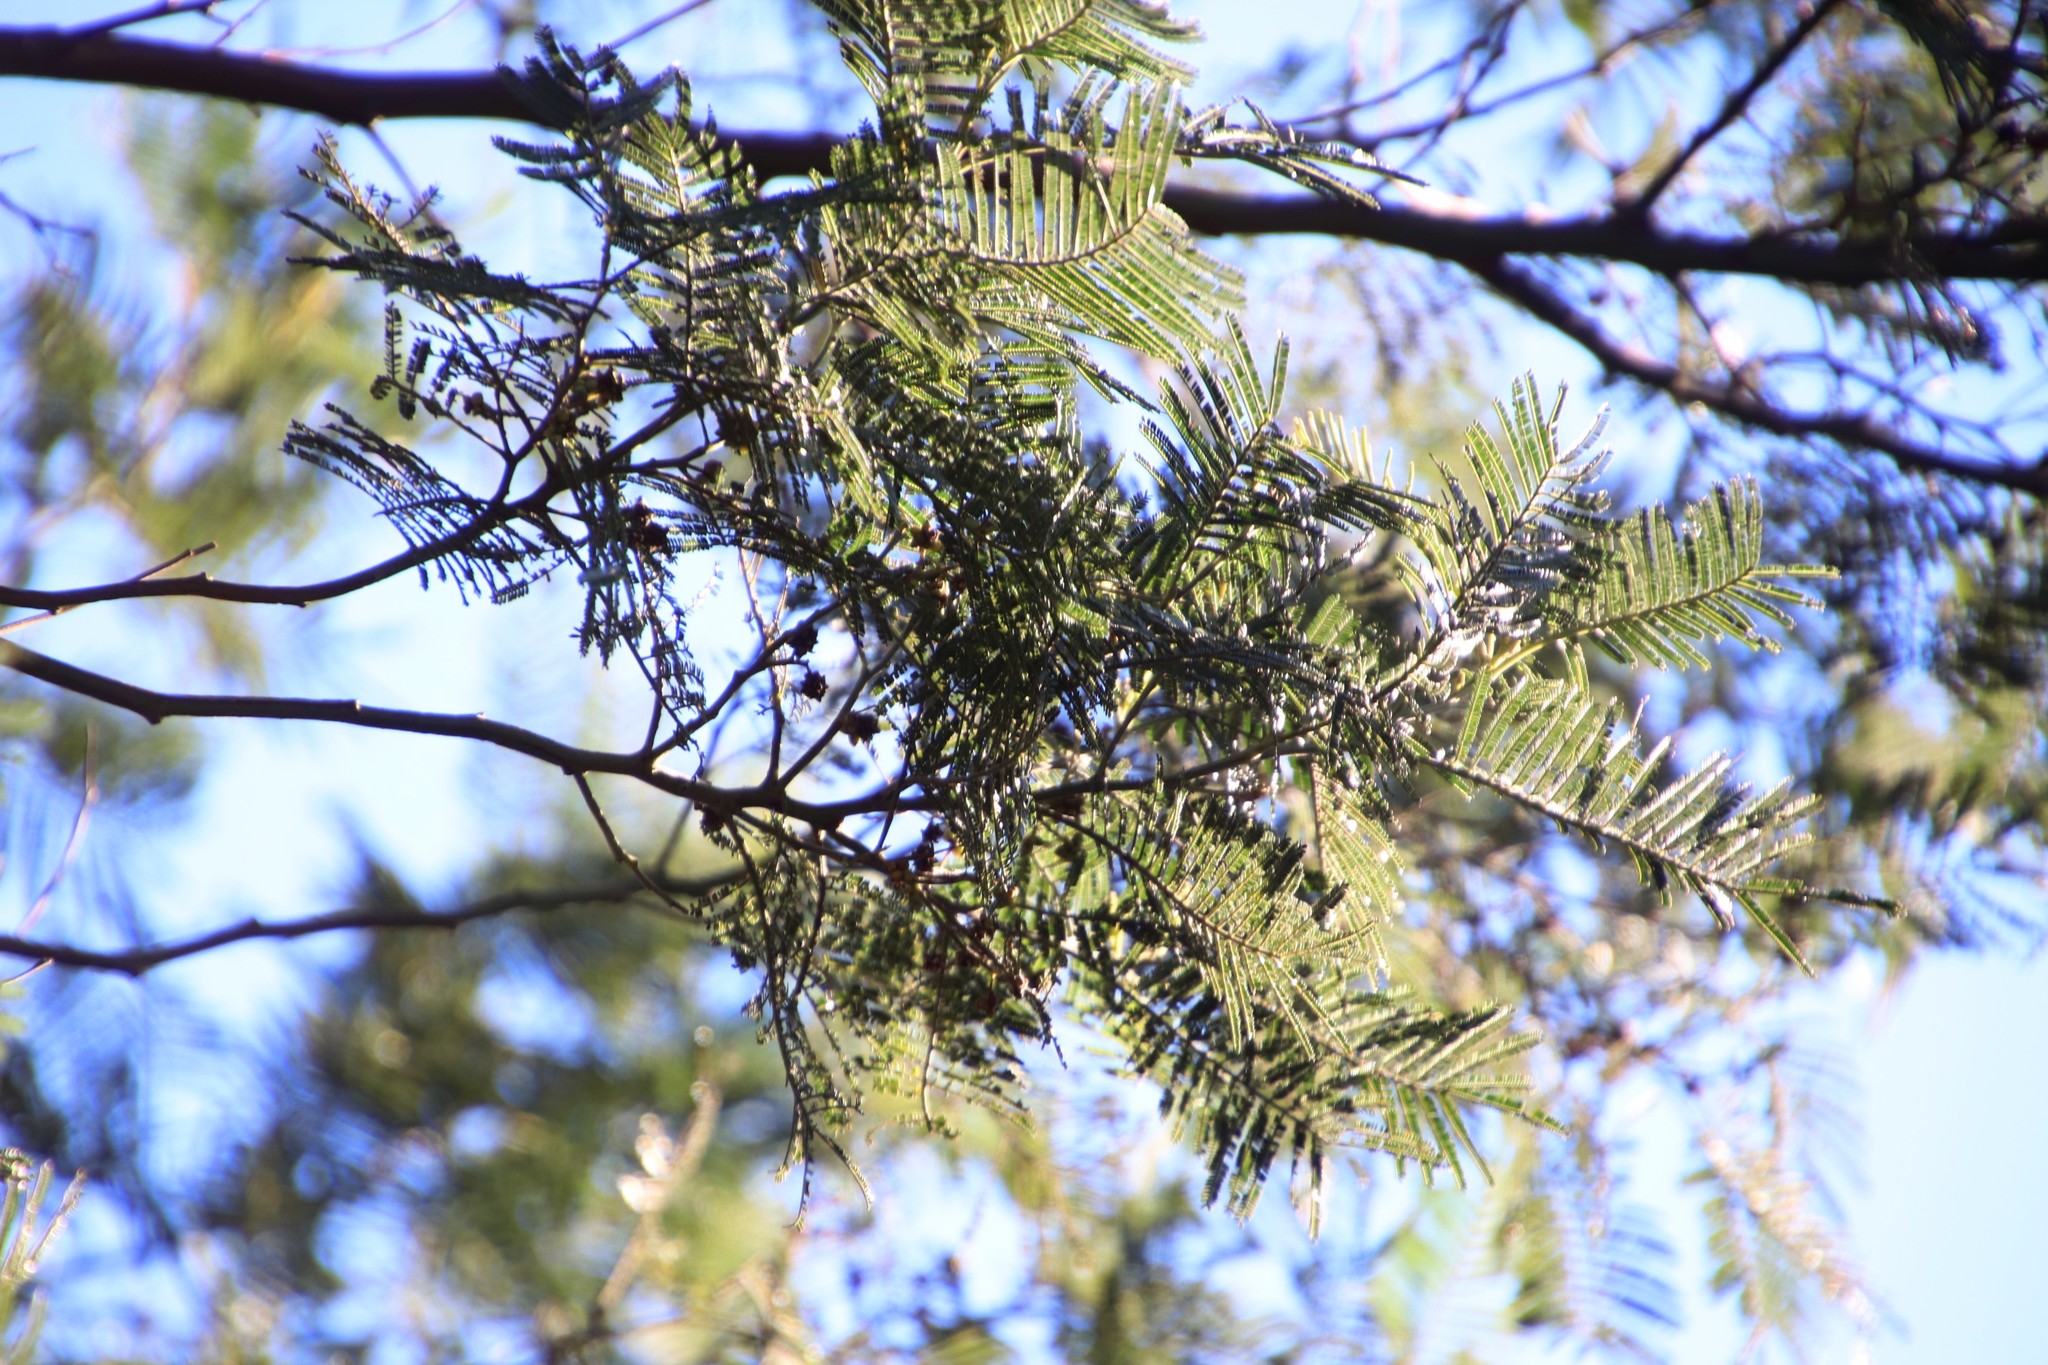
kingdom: Plantae
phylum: Tracheophyta
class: Magnoliopsida
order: Fabales
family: Fabaceae
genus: Acacia
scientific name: Acacia mearnsii
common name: Black wattle
